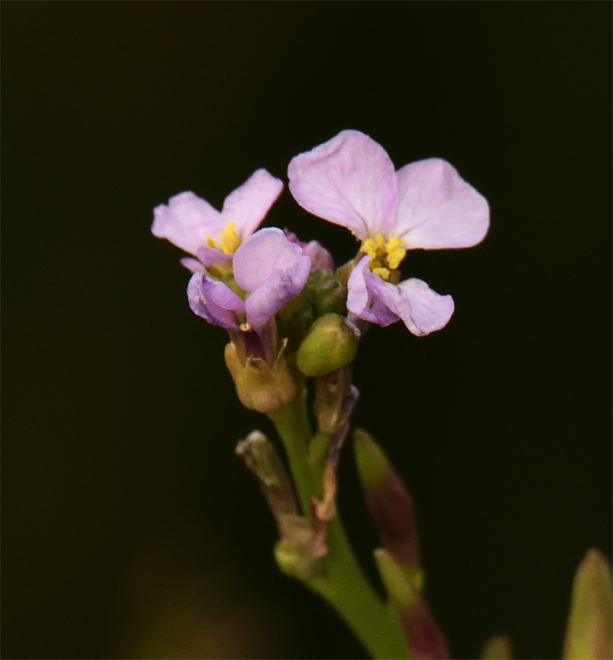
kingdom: Plantae
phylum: Tracheophyta
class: Magnoliopsida
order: Brassicales
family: Brassicaceae
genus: Cakile
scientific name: Cakile maritima
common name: Sea rocket
